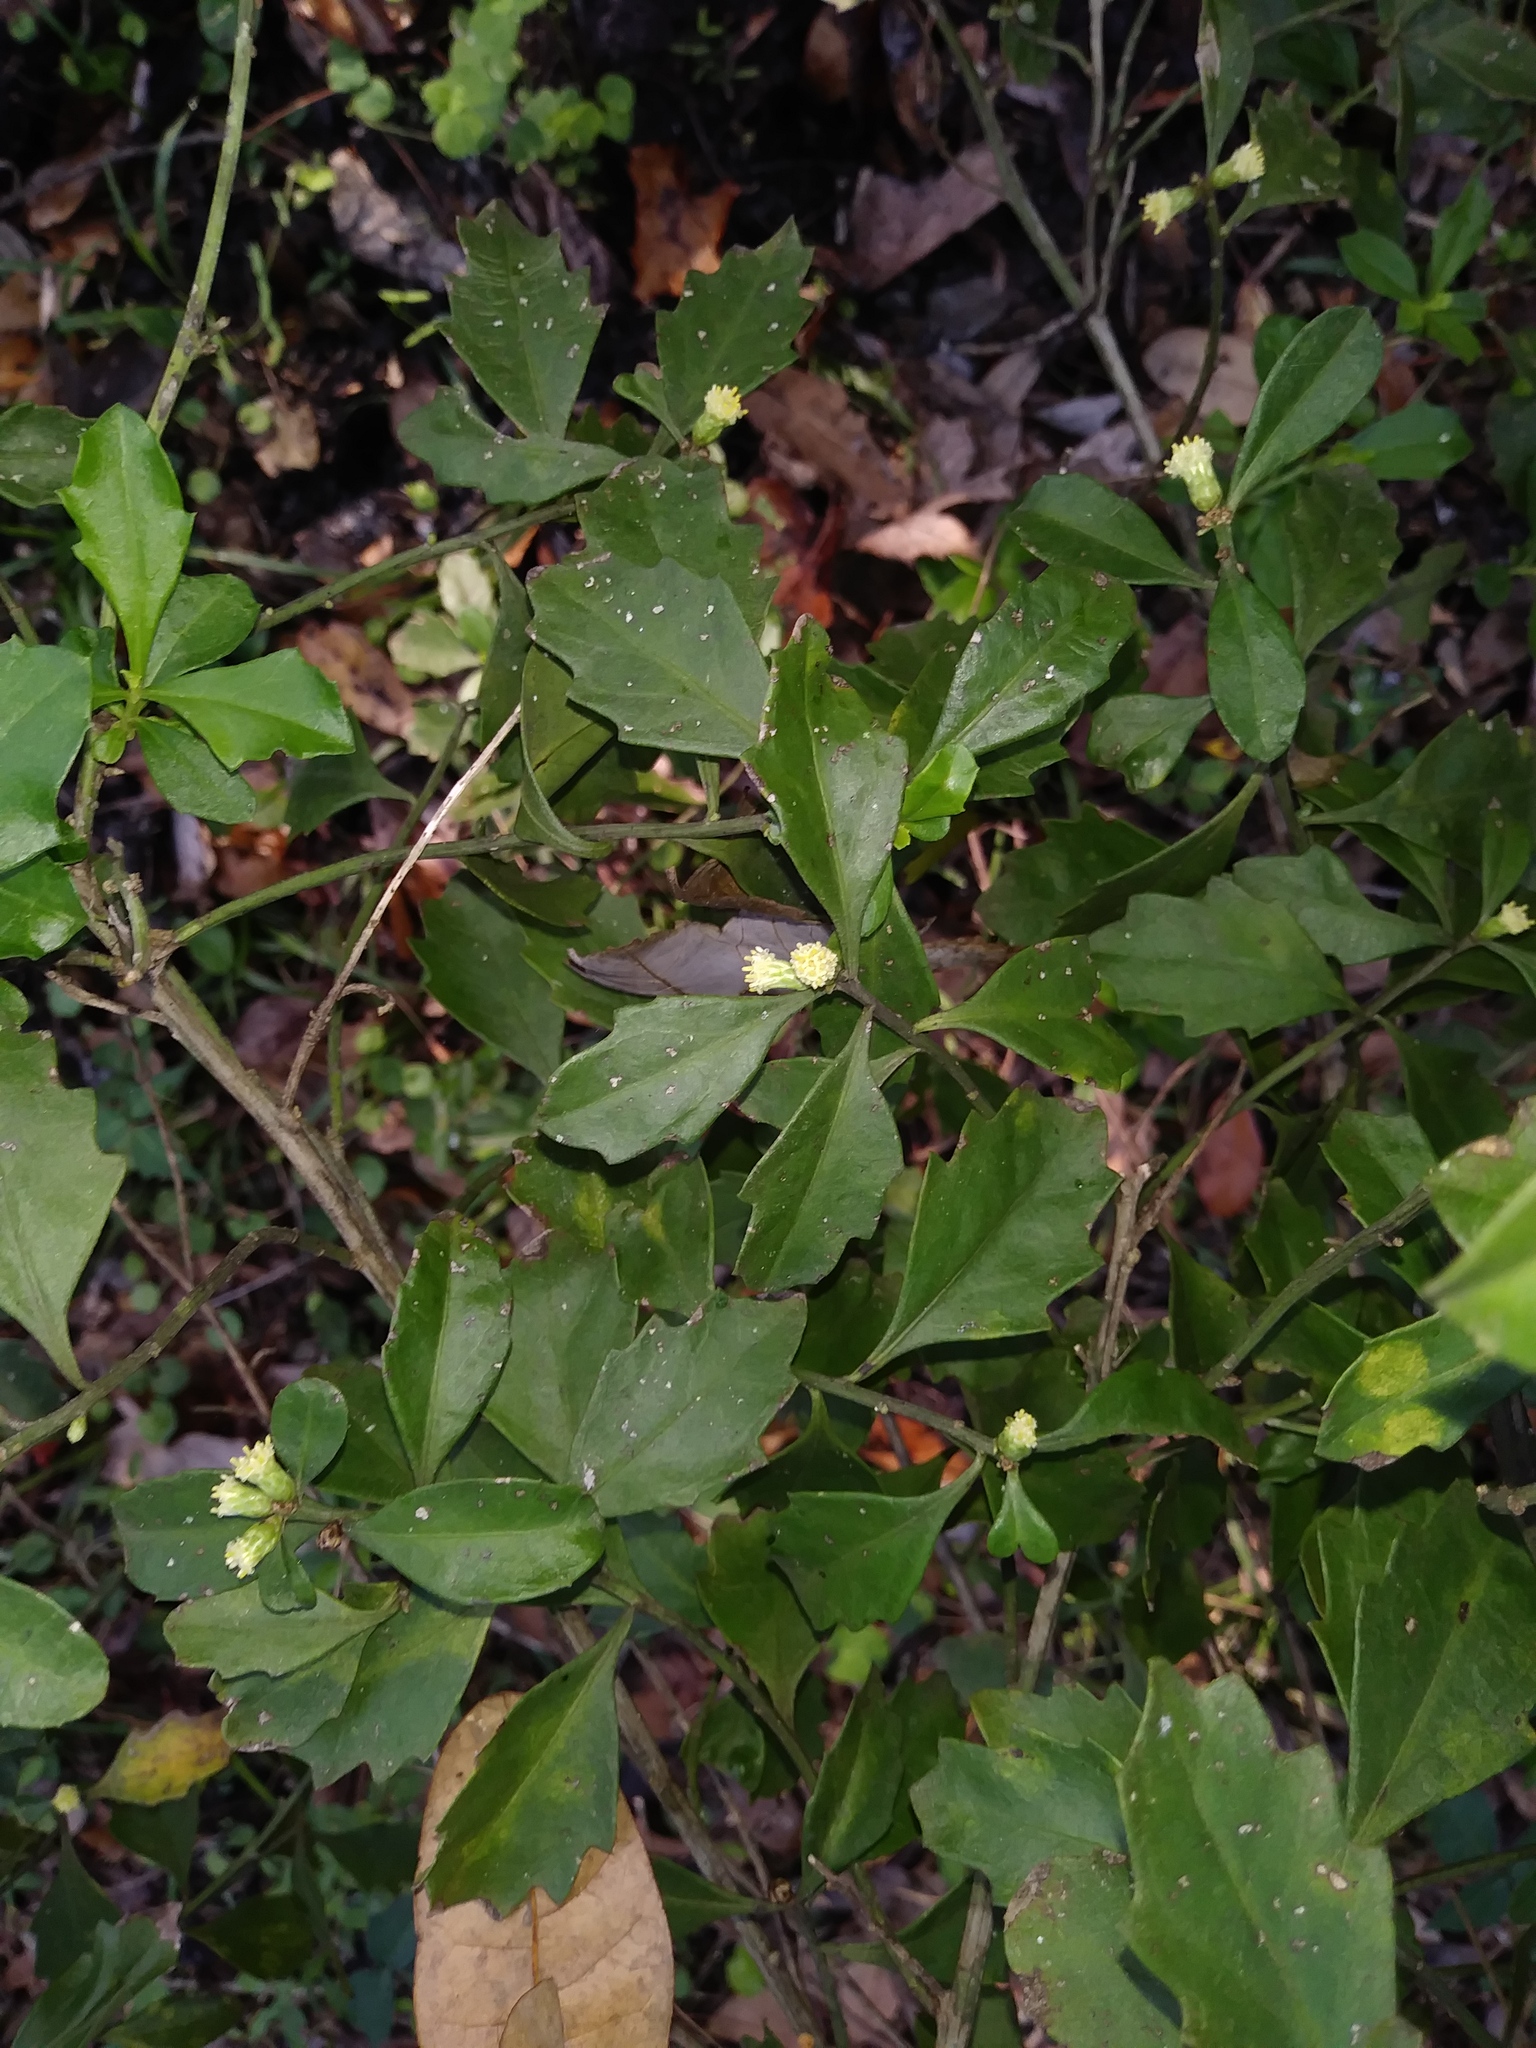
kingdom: Plantae
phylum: Tracheophyta
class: Magnoliopsida
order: Asterales
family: Asteraceae
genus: Baccharis
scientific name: Baccharis glomeruliflora
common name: Silverling groundsel bush
